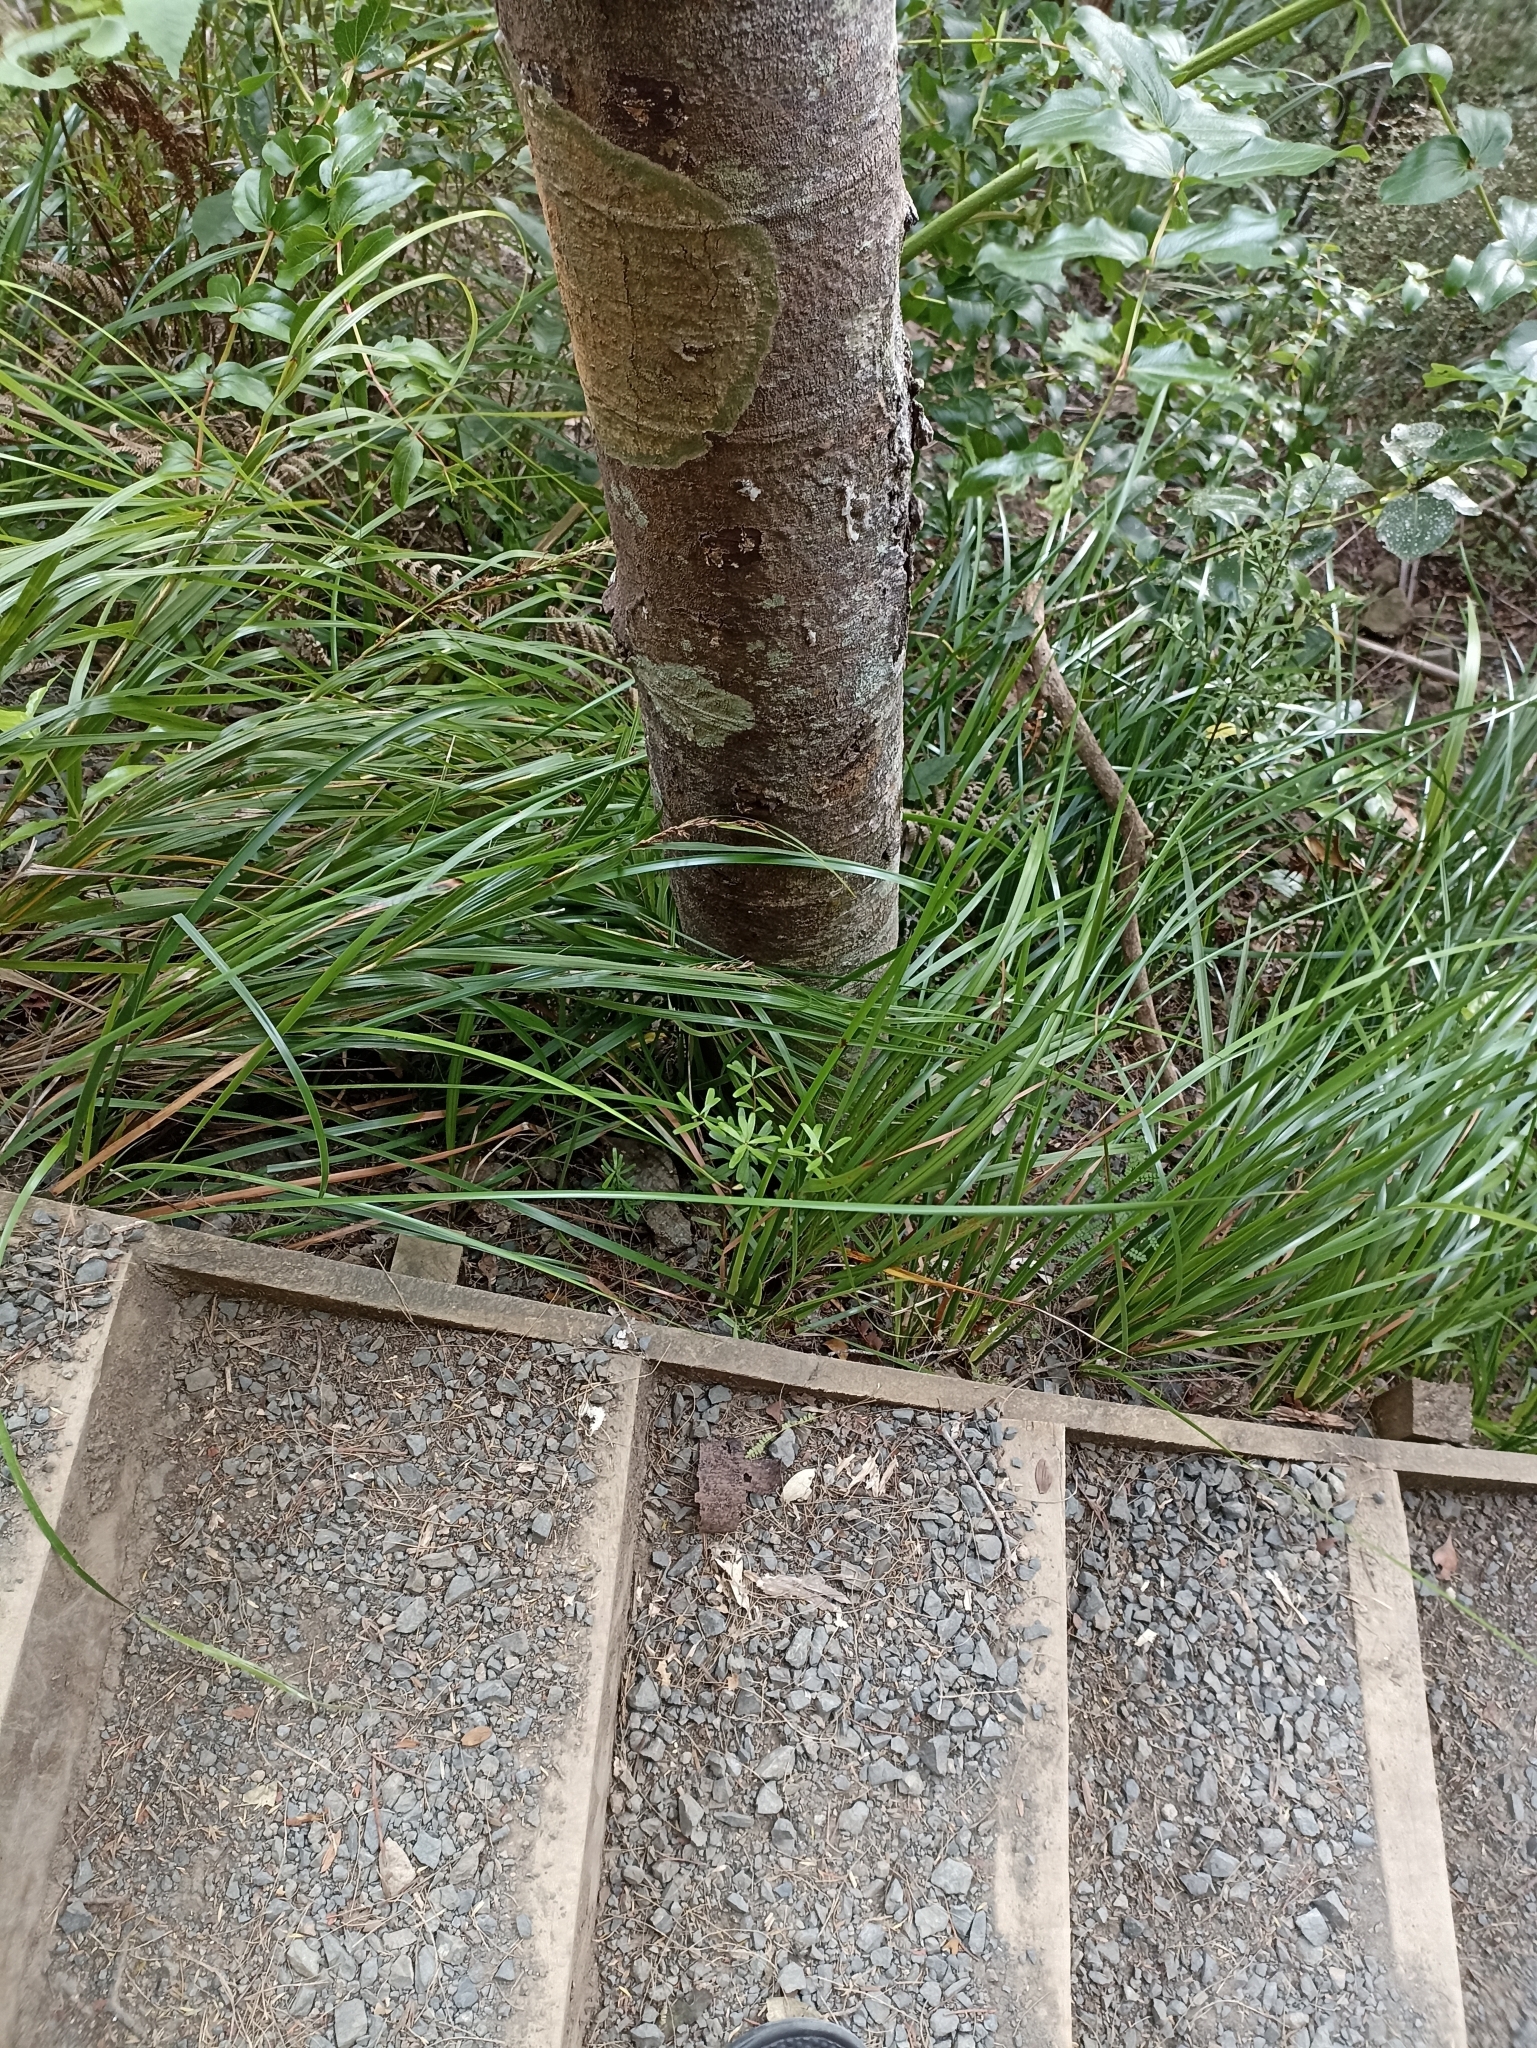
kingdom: Plantae
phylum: Tracheophyta
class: Magnoliopsida
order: Sapindales
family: Rutaceae
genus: Leionema
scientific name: Leionema nudum
